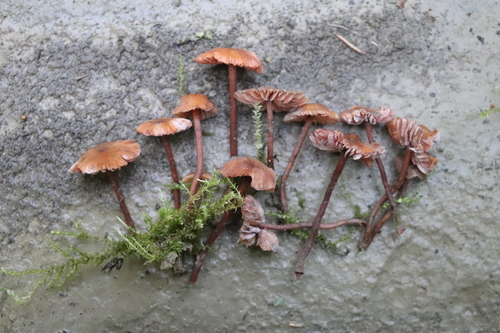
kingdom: Fungi
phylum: Basidiomycota
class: Agaricomycetes
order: Agaricales
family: Hydnangiaceae
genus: Laccaria
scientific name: Laccaria laccata
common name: Deceiver
